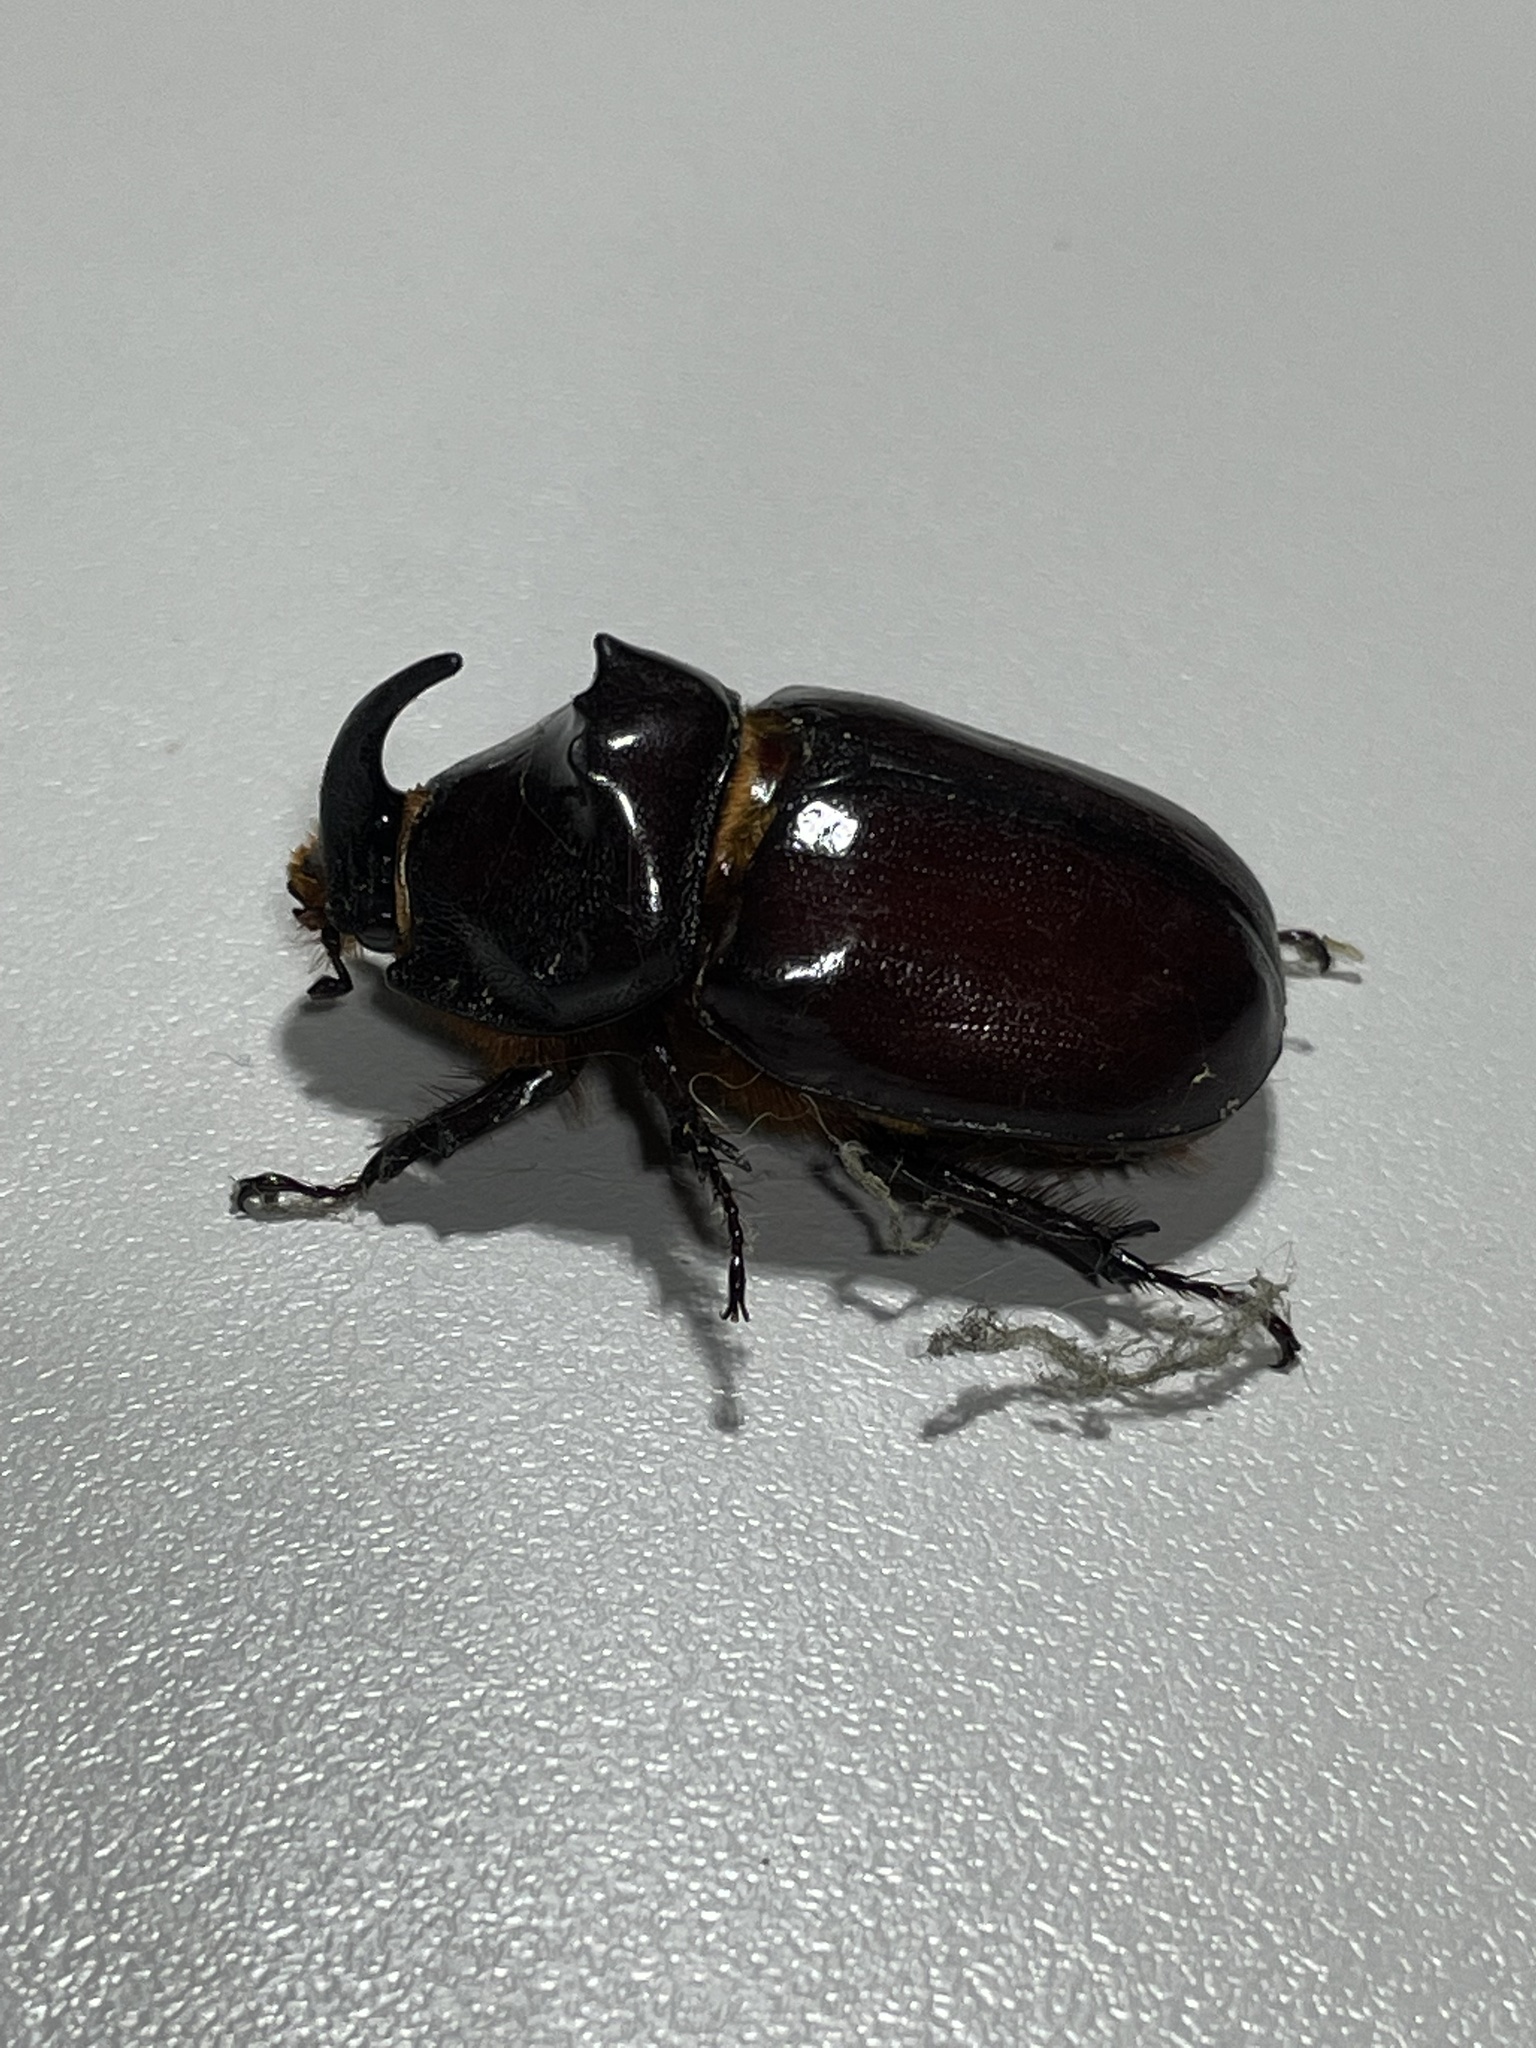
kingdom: Animalia
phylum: Arthropoda
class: Insecta
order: Coleoptera
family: Scarabaeidae
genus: Oryctes
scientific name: Oryctes nasicornis
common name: European rhinoceros beetle
